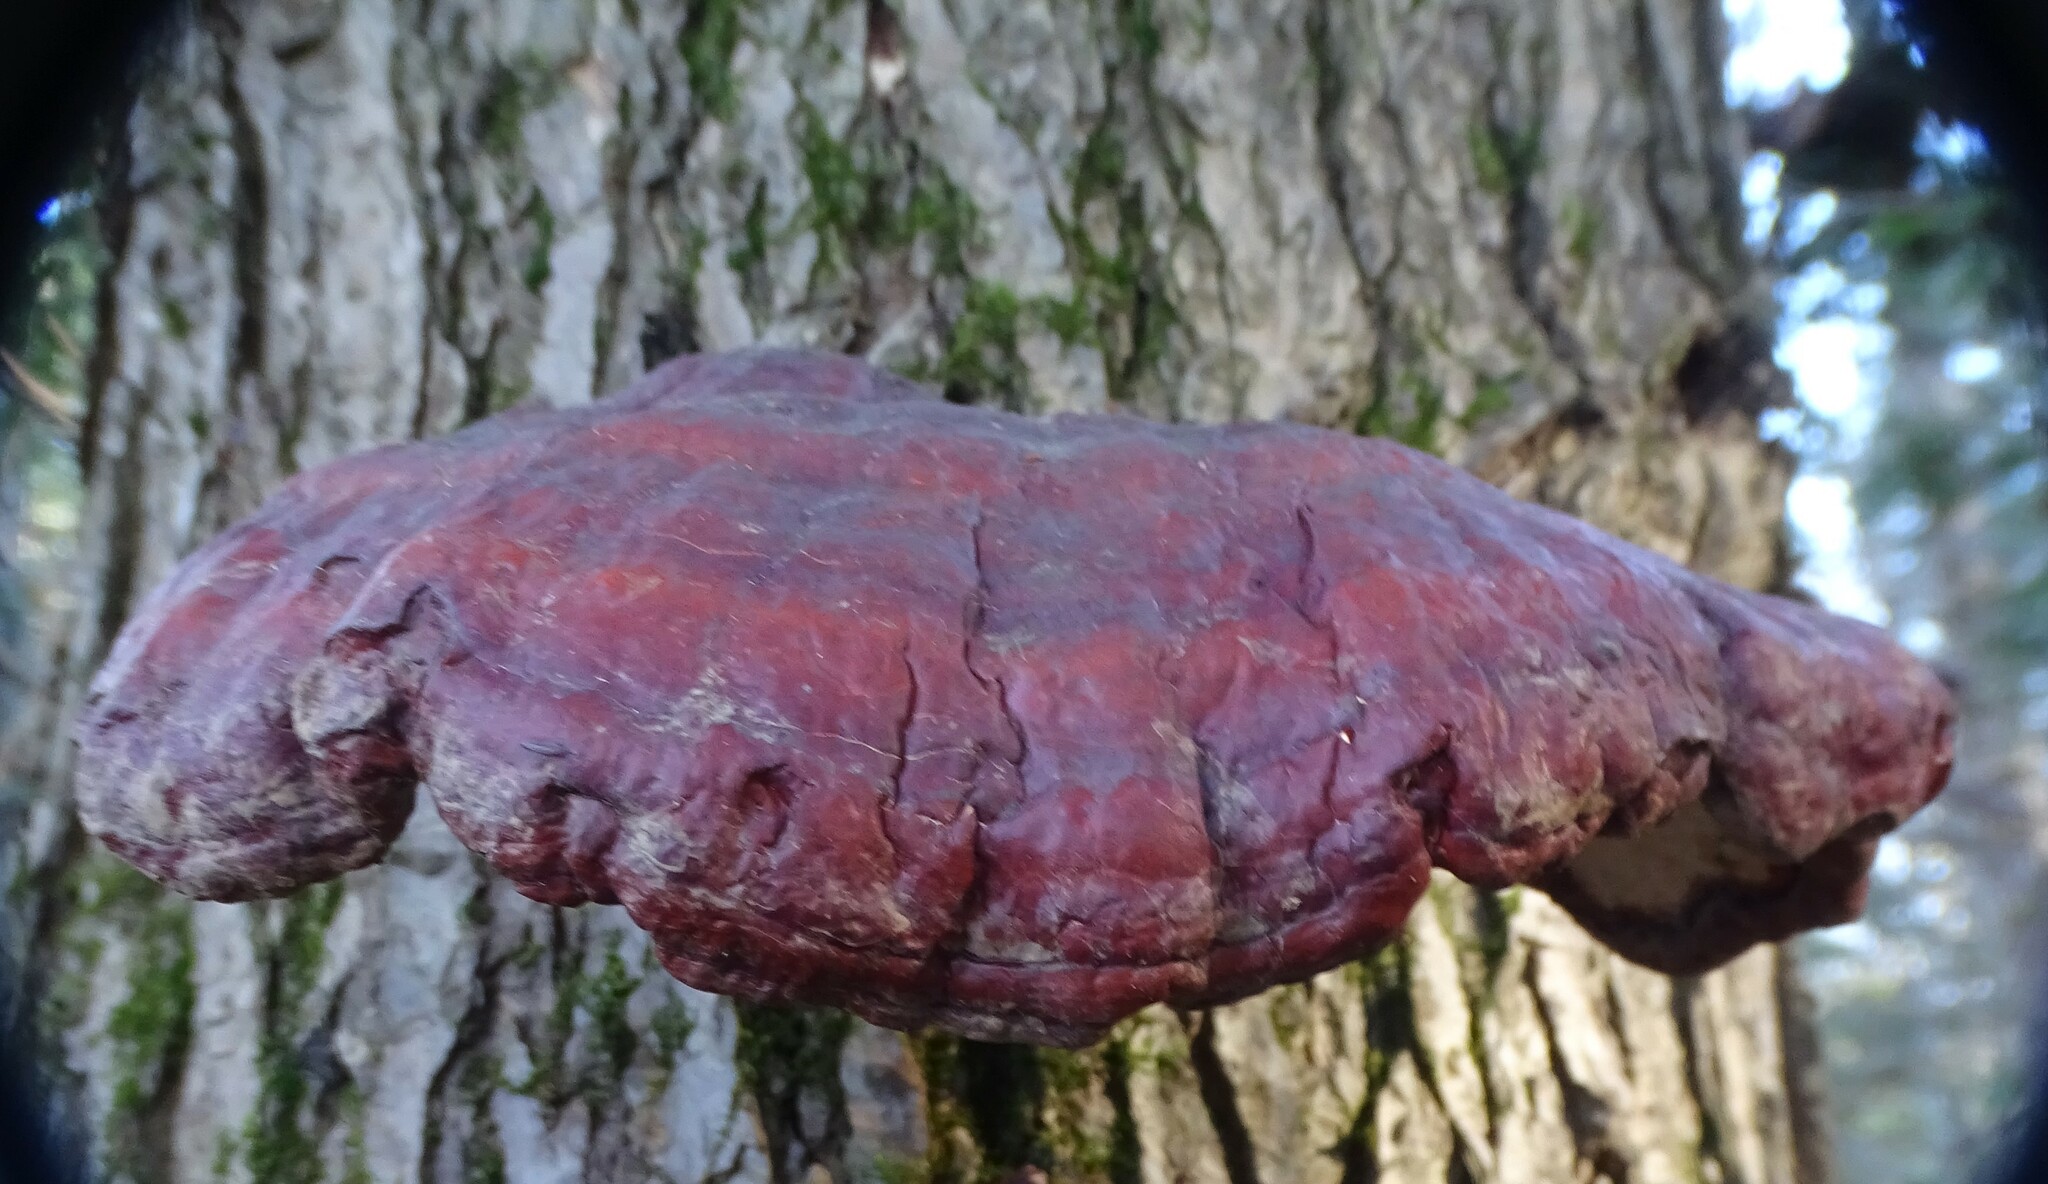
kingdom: Fungi
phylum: Basidiomycota
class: Agaricomycetes
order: Polyporales
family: Polyporaceae
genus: Ganoderma
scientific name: Ganoderma tsugae
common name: Hemlock varnish shelf
